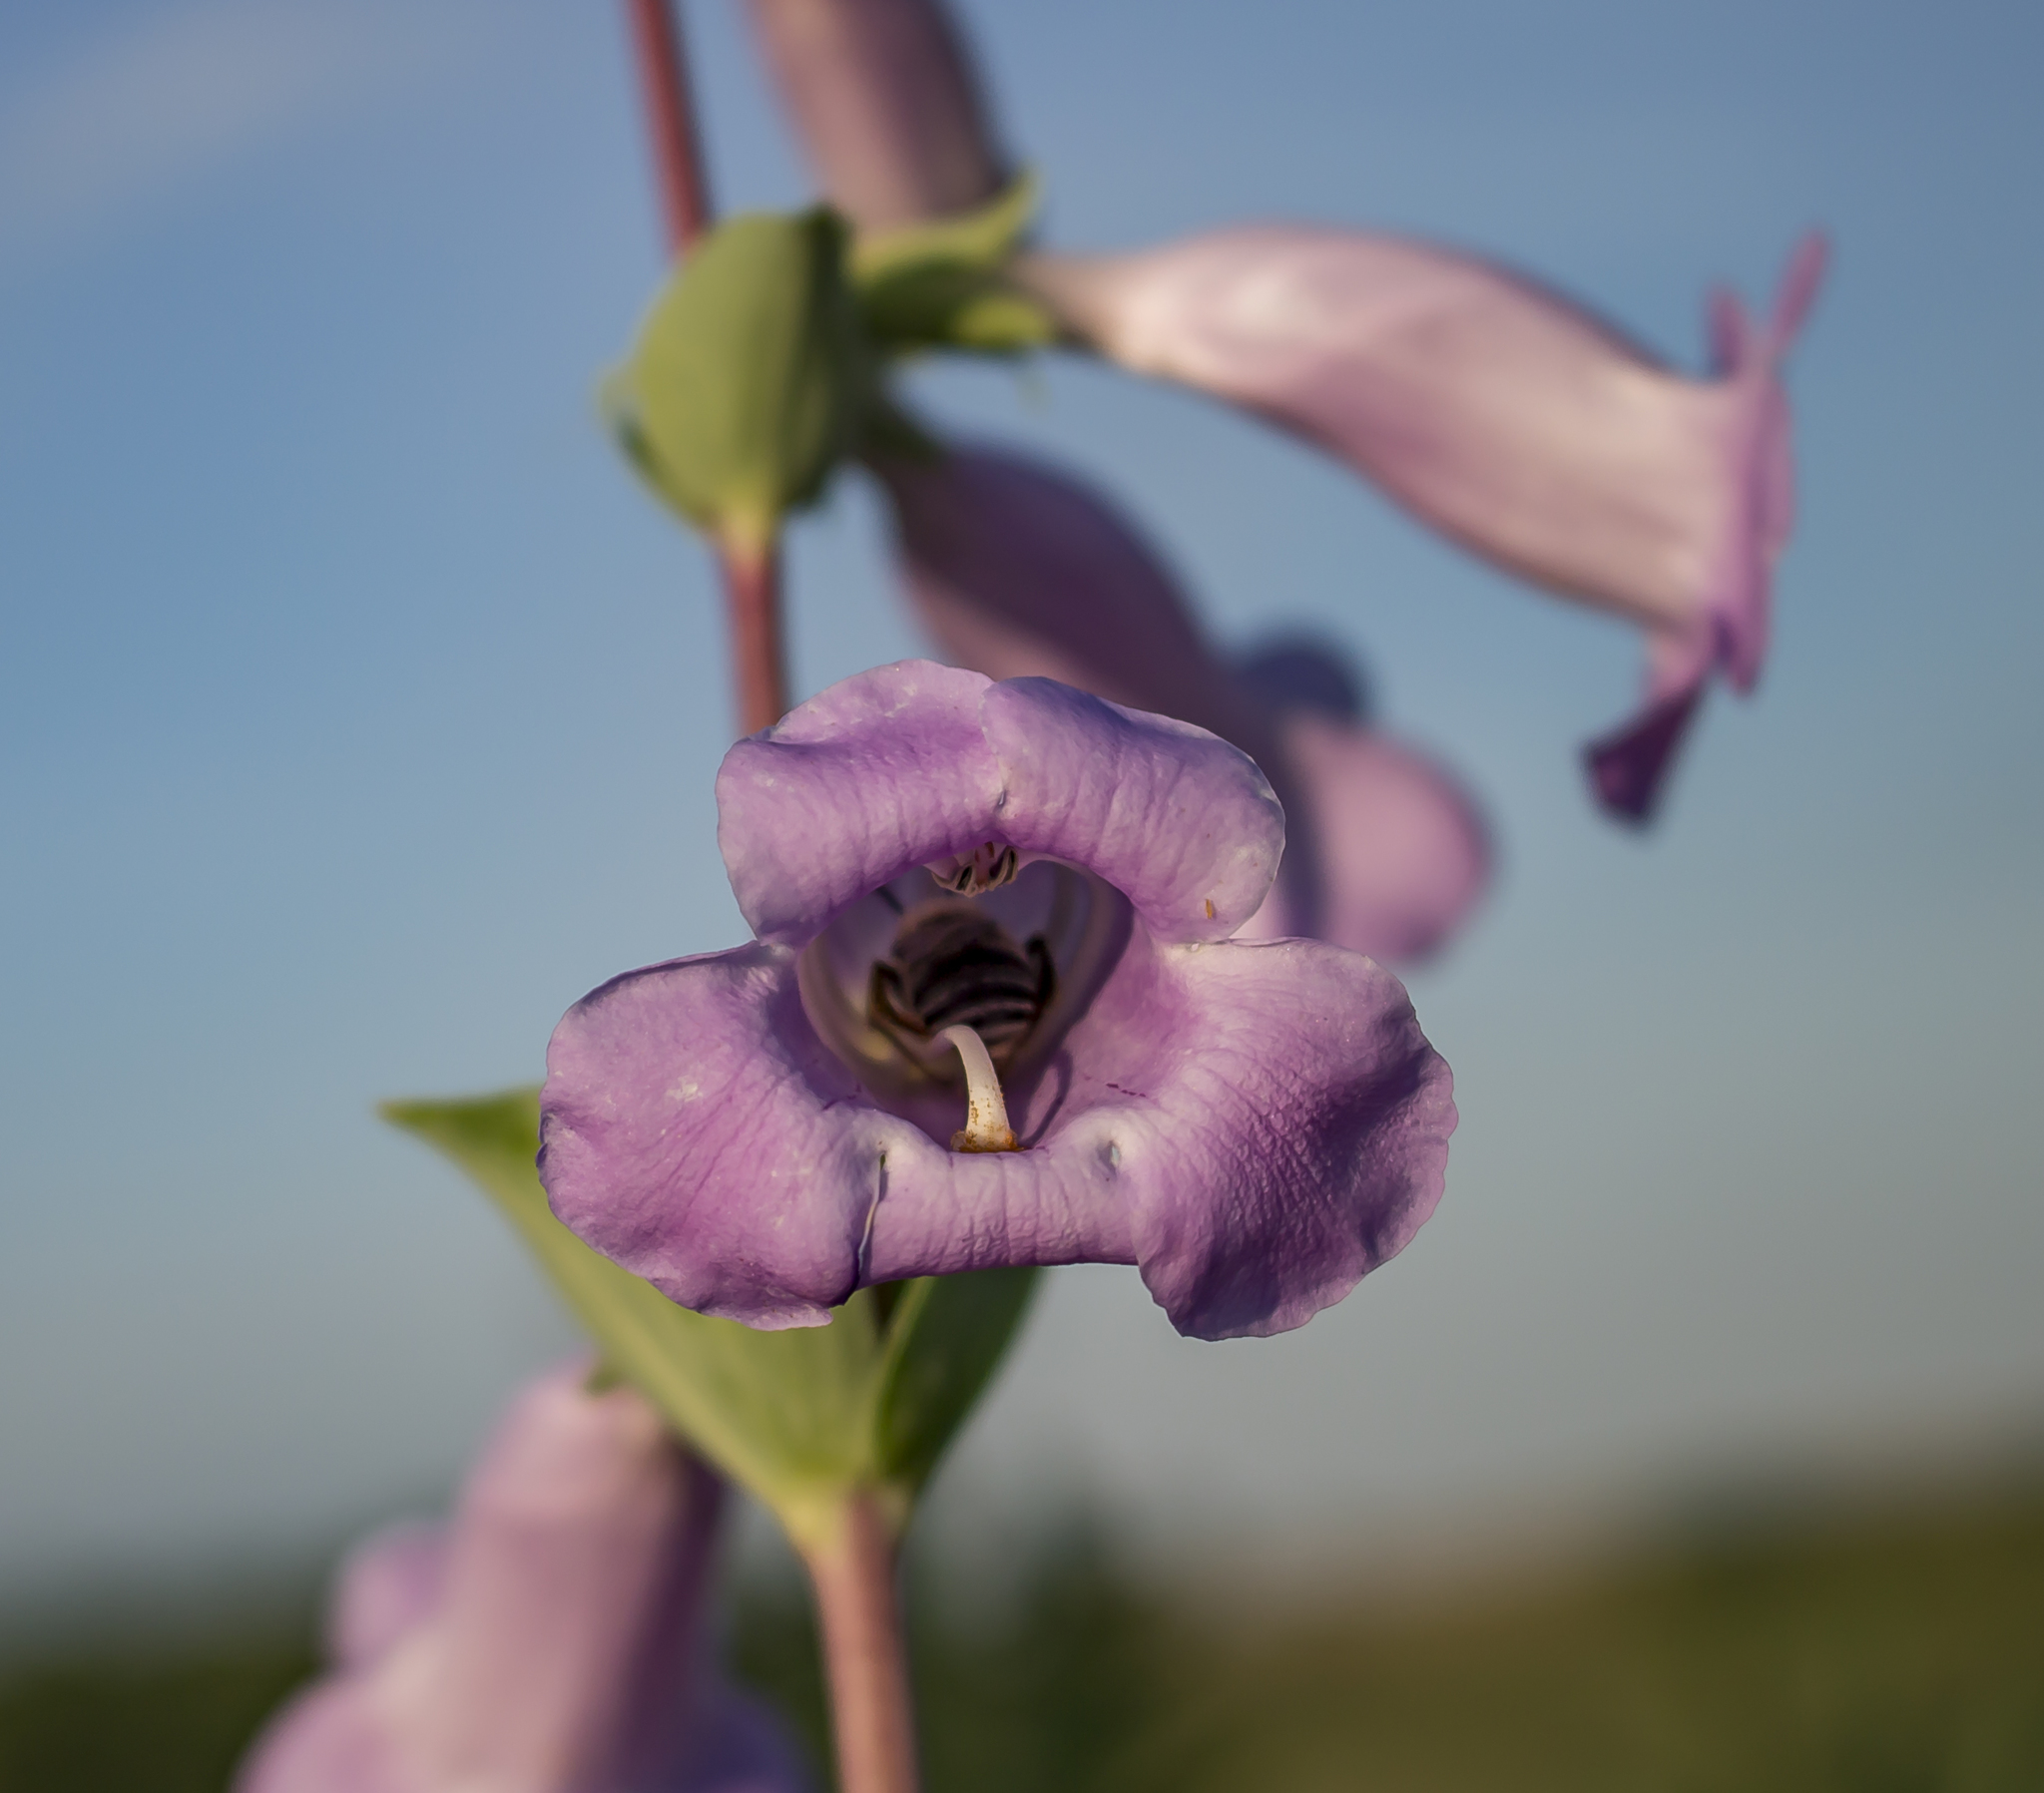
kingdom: Plantae
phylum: Tracheophyta
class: Magnoliopsida
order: Lamiales
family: Plantaginaceae
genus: Penstemon
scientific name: Penstemon
